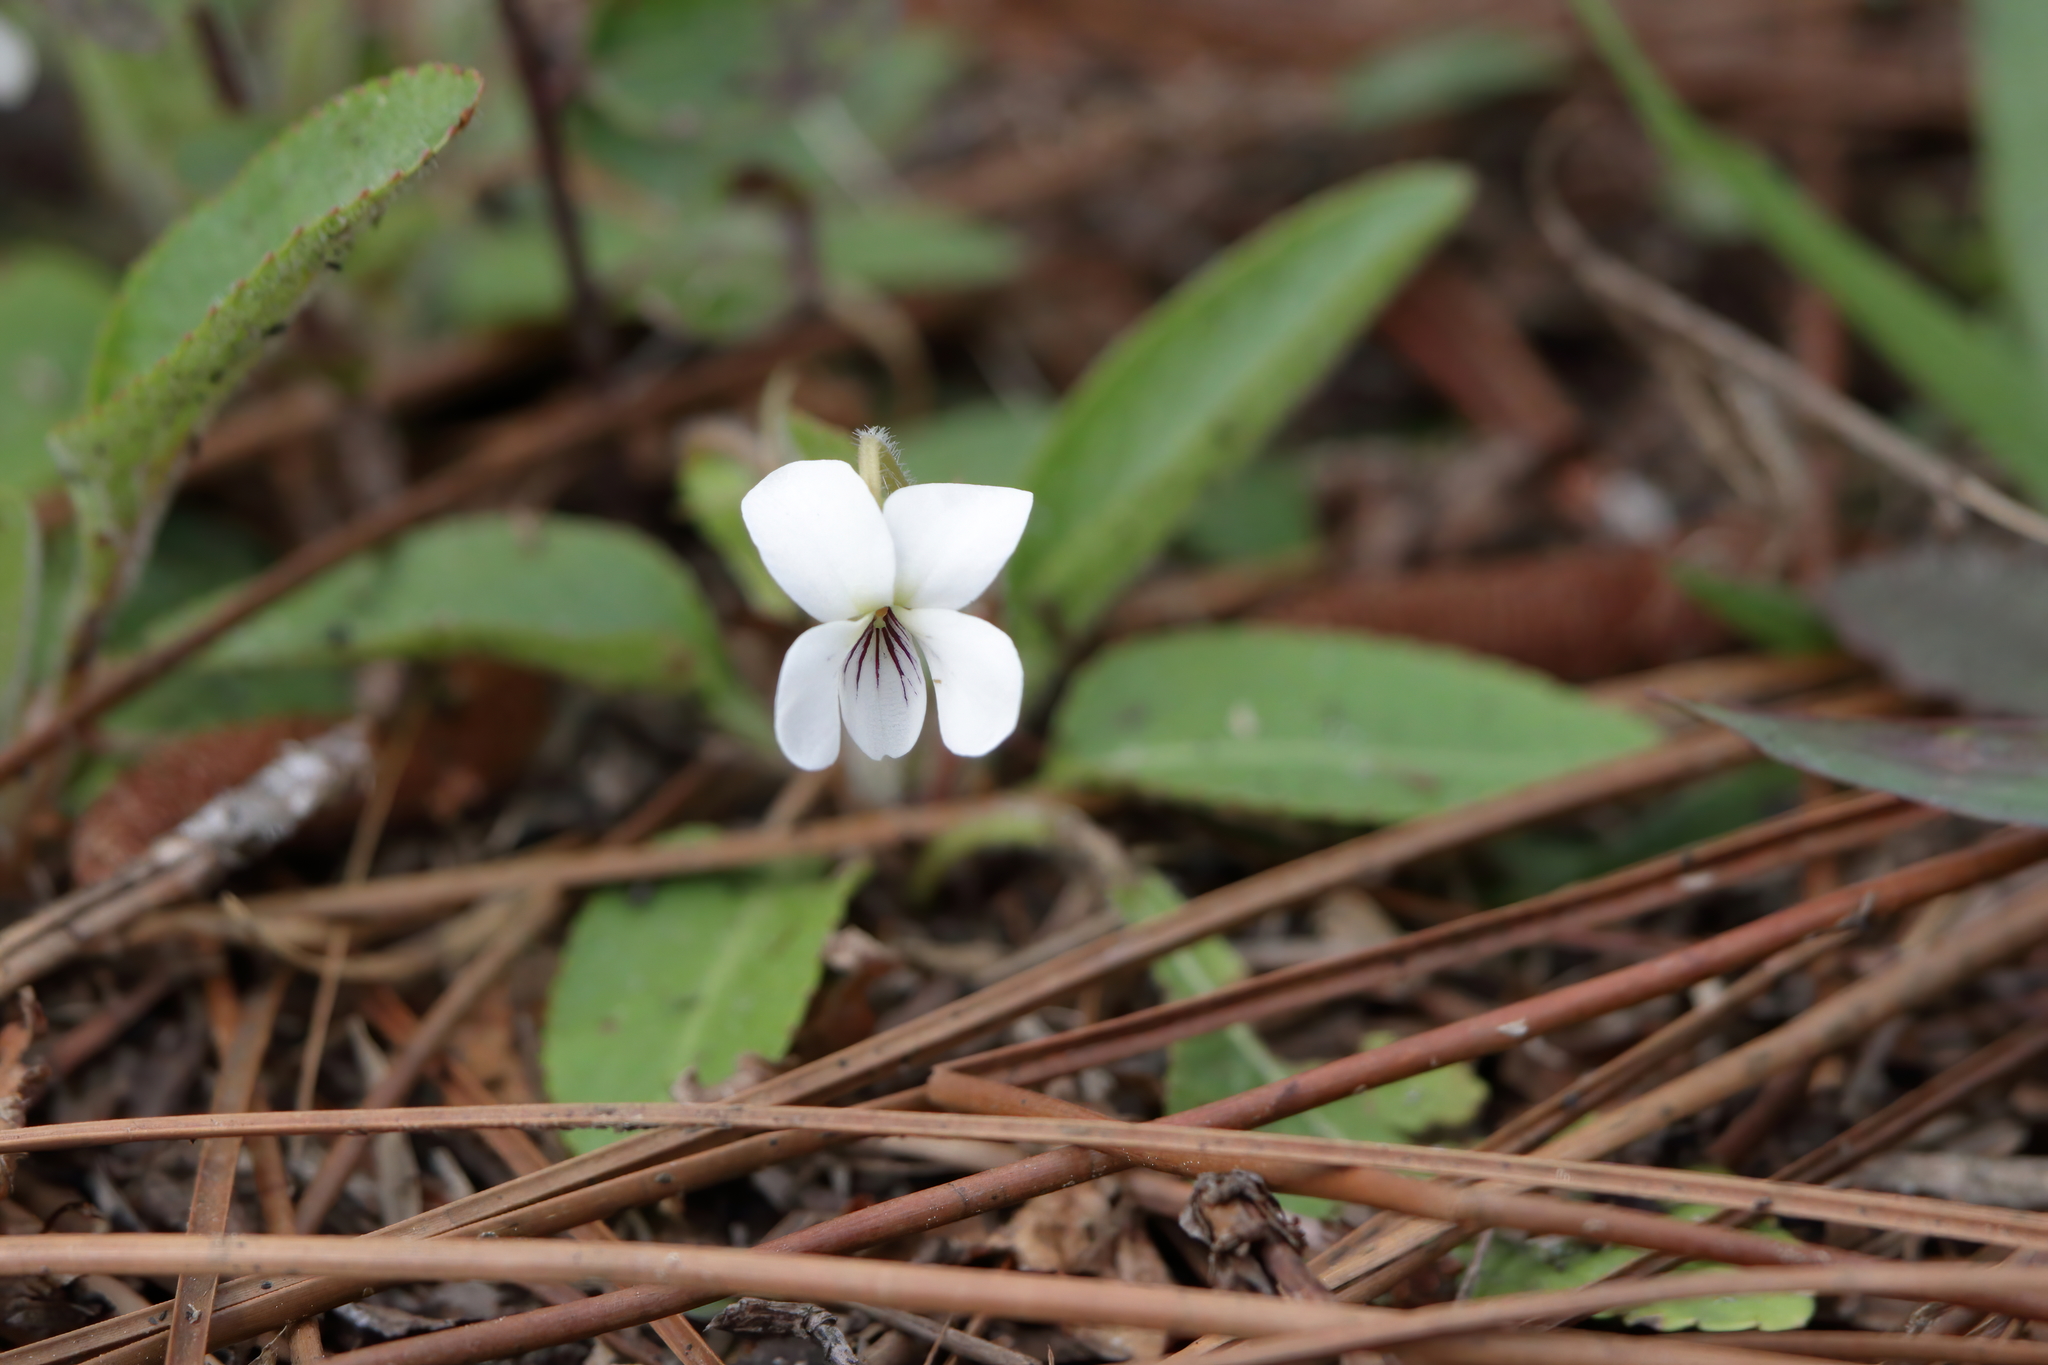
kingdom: Plantae
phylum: Tracheophyta
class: Magnoliopsida
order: Malpighiales
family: Violaceae
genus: Viola
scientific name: Viola lanceolata
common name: Bog white violet
